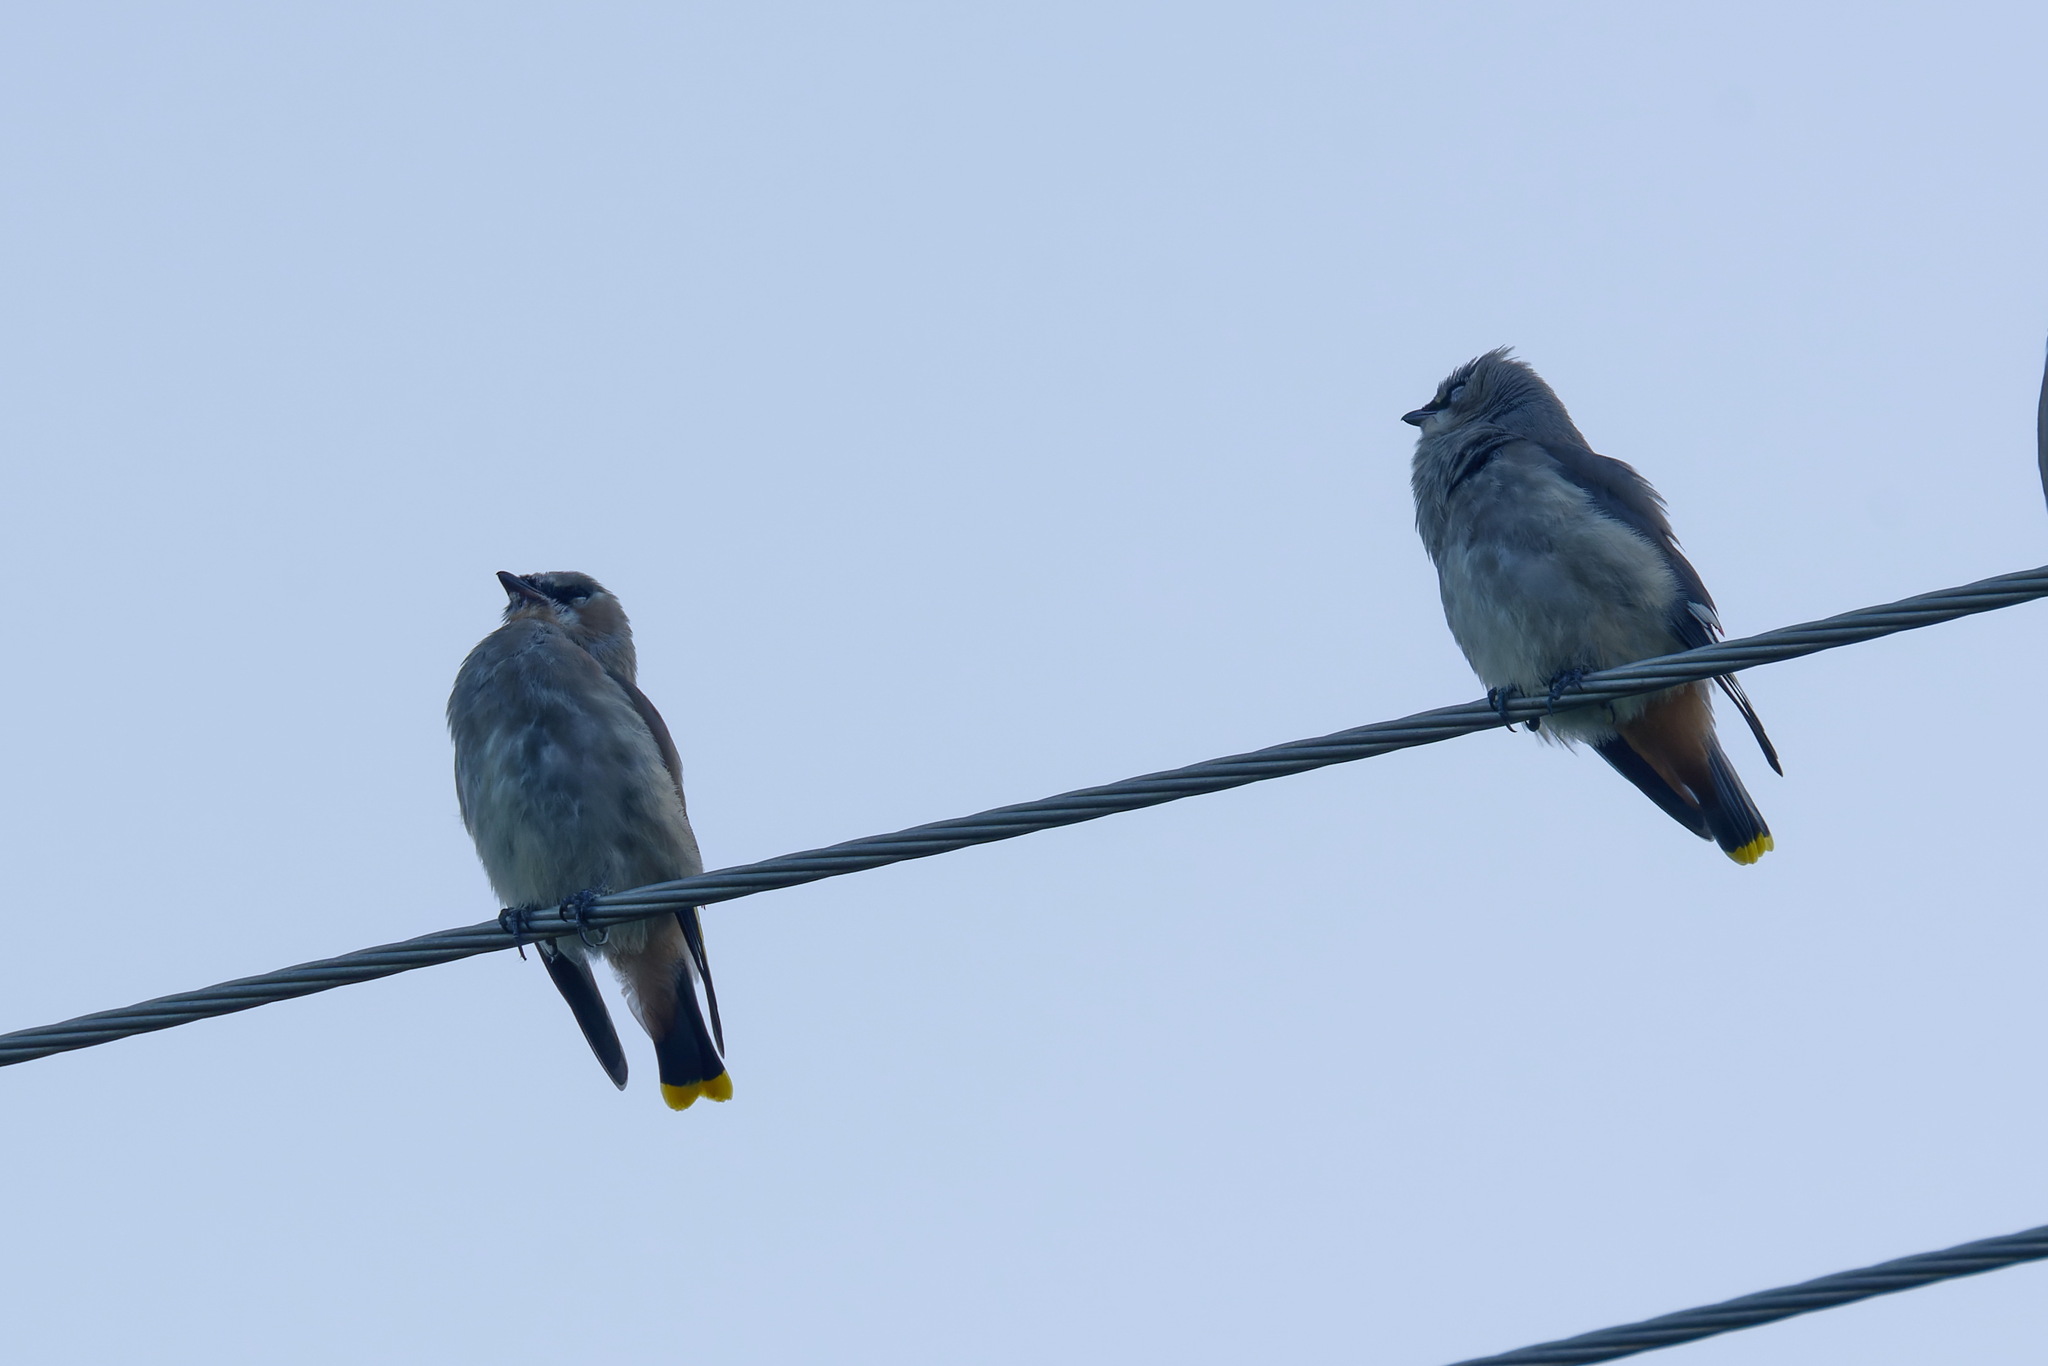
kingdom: Animalia
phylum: Chordata
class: Aves
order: Passeriformes
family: Bombycillidae
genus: Bombycilla
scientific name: Bombycilla garrulus
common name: Bohemian waxwing
